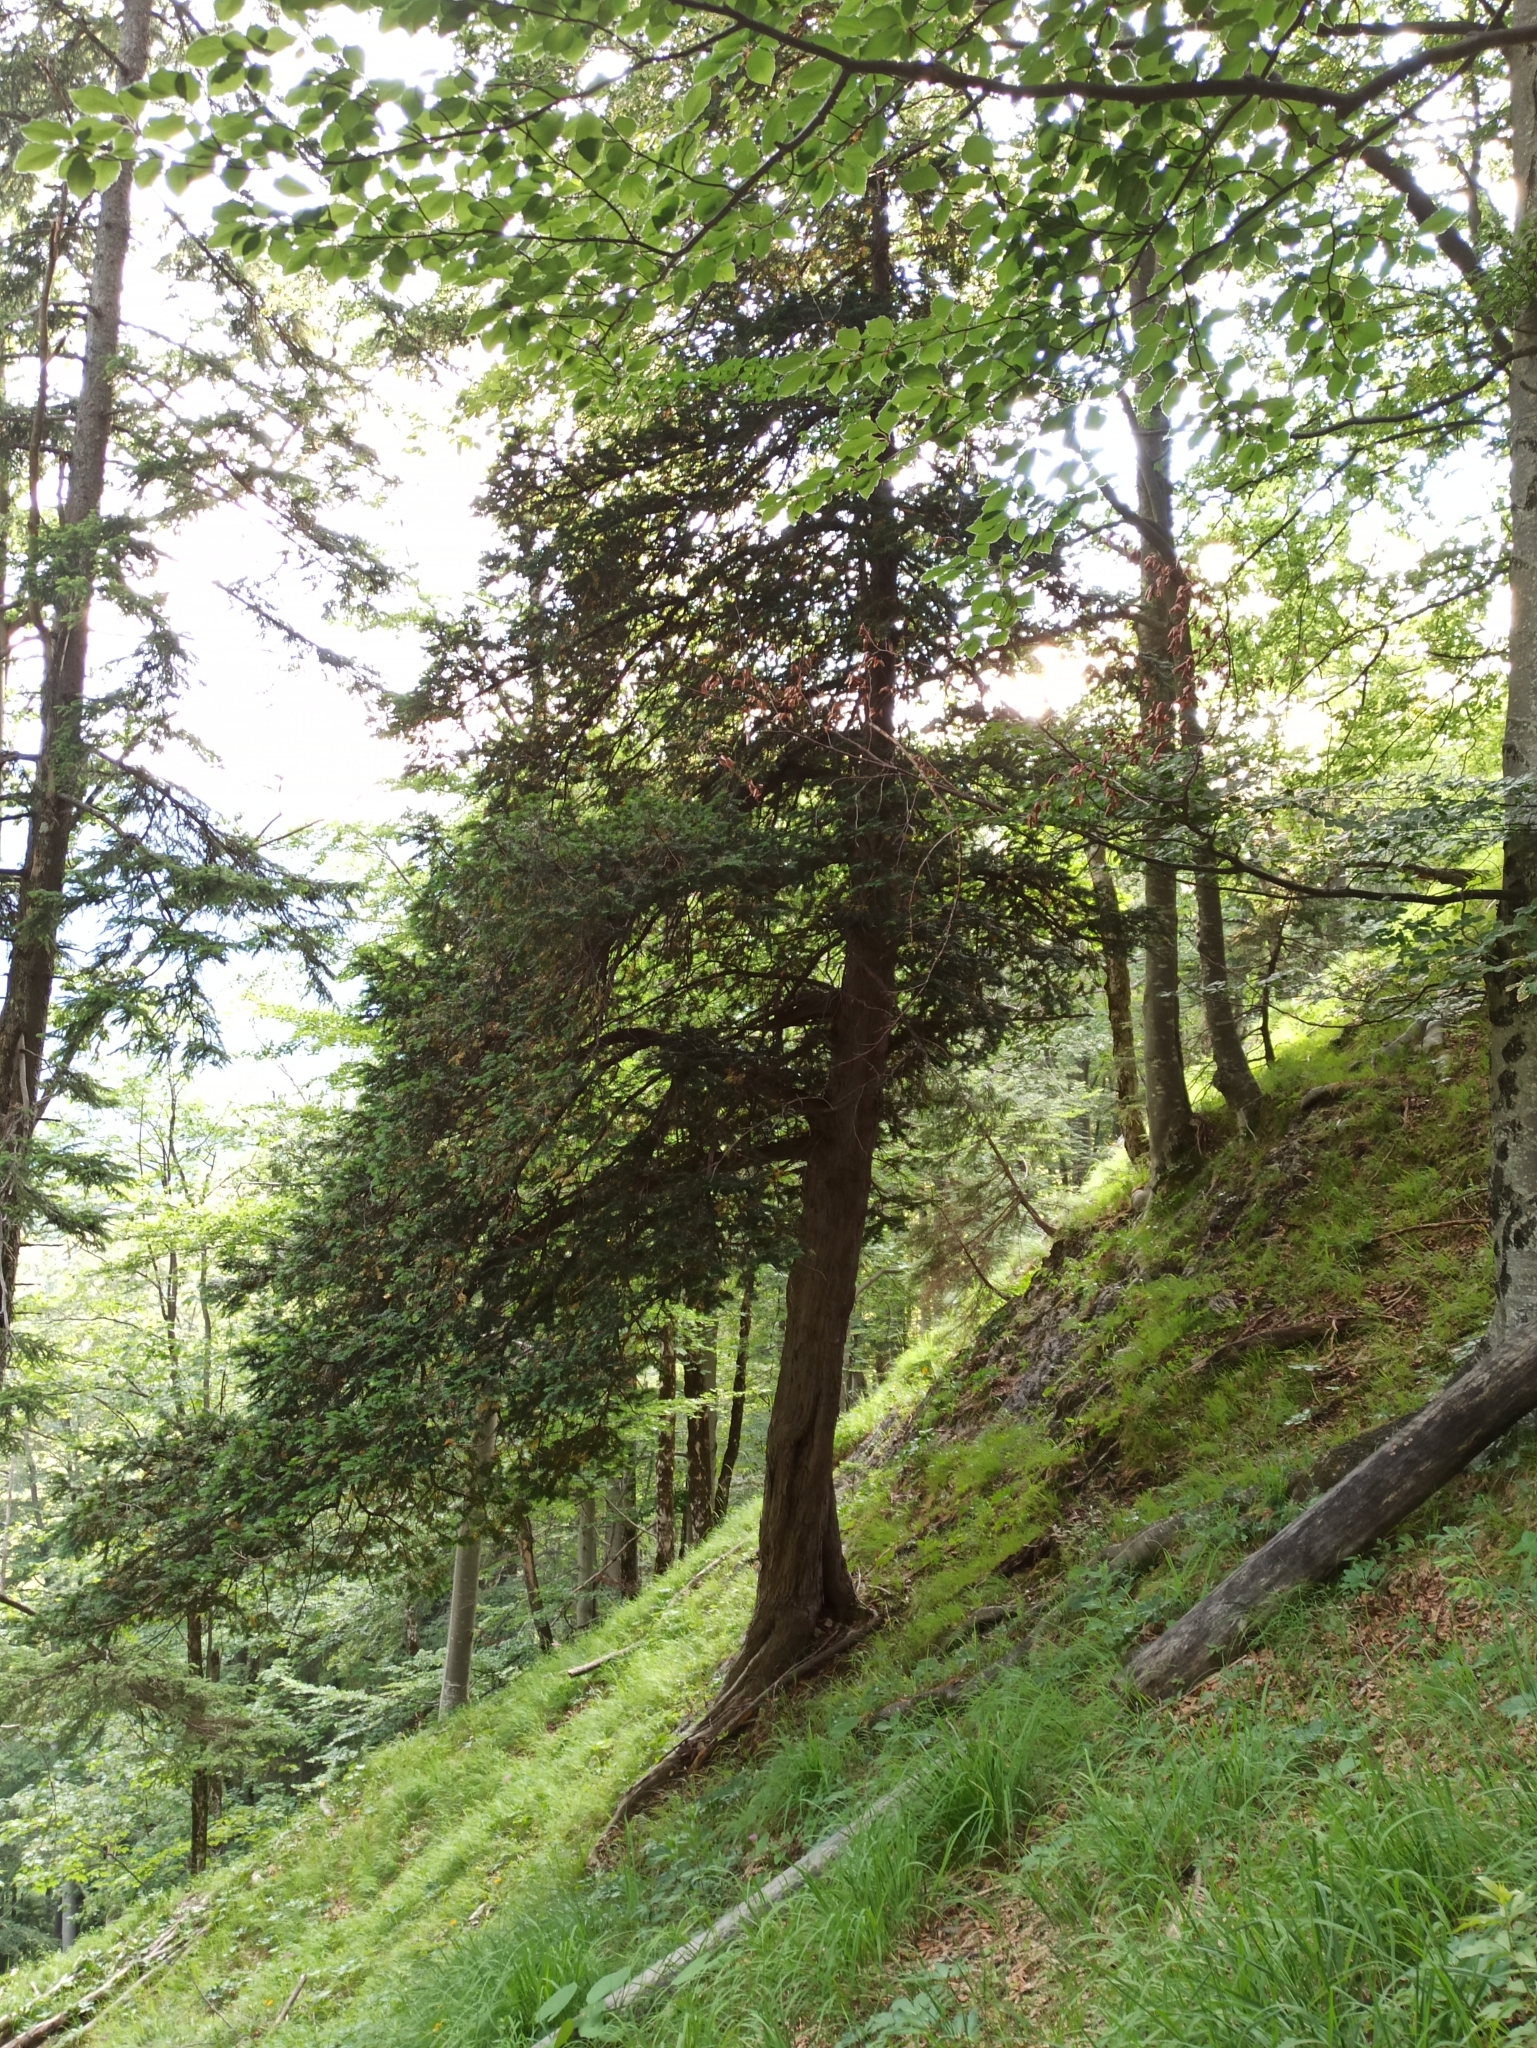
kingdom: Plantae
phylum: Tracheophyta
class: Pinopsida
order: Pinales
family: Taxaceae
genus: Taxus
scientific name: Taxus baccata
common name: Yew
